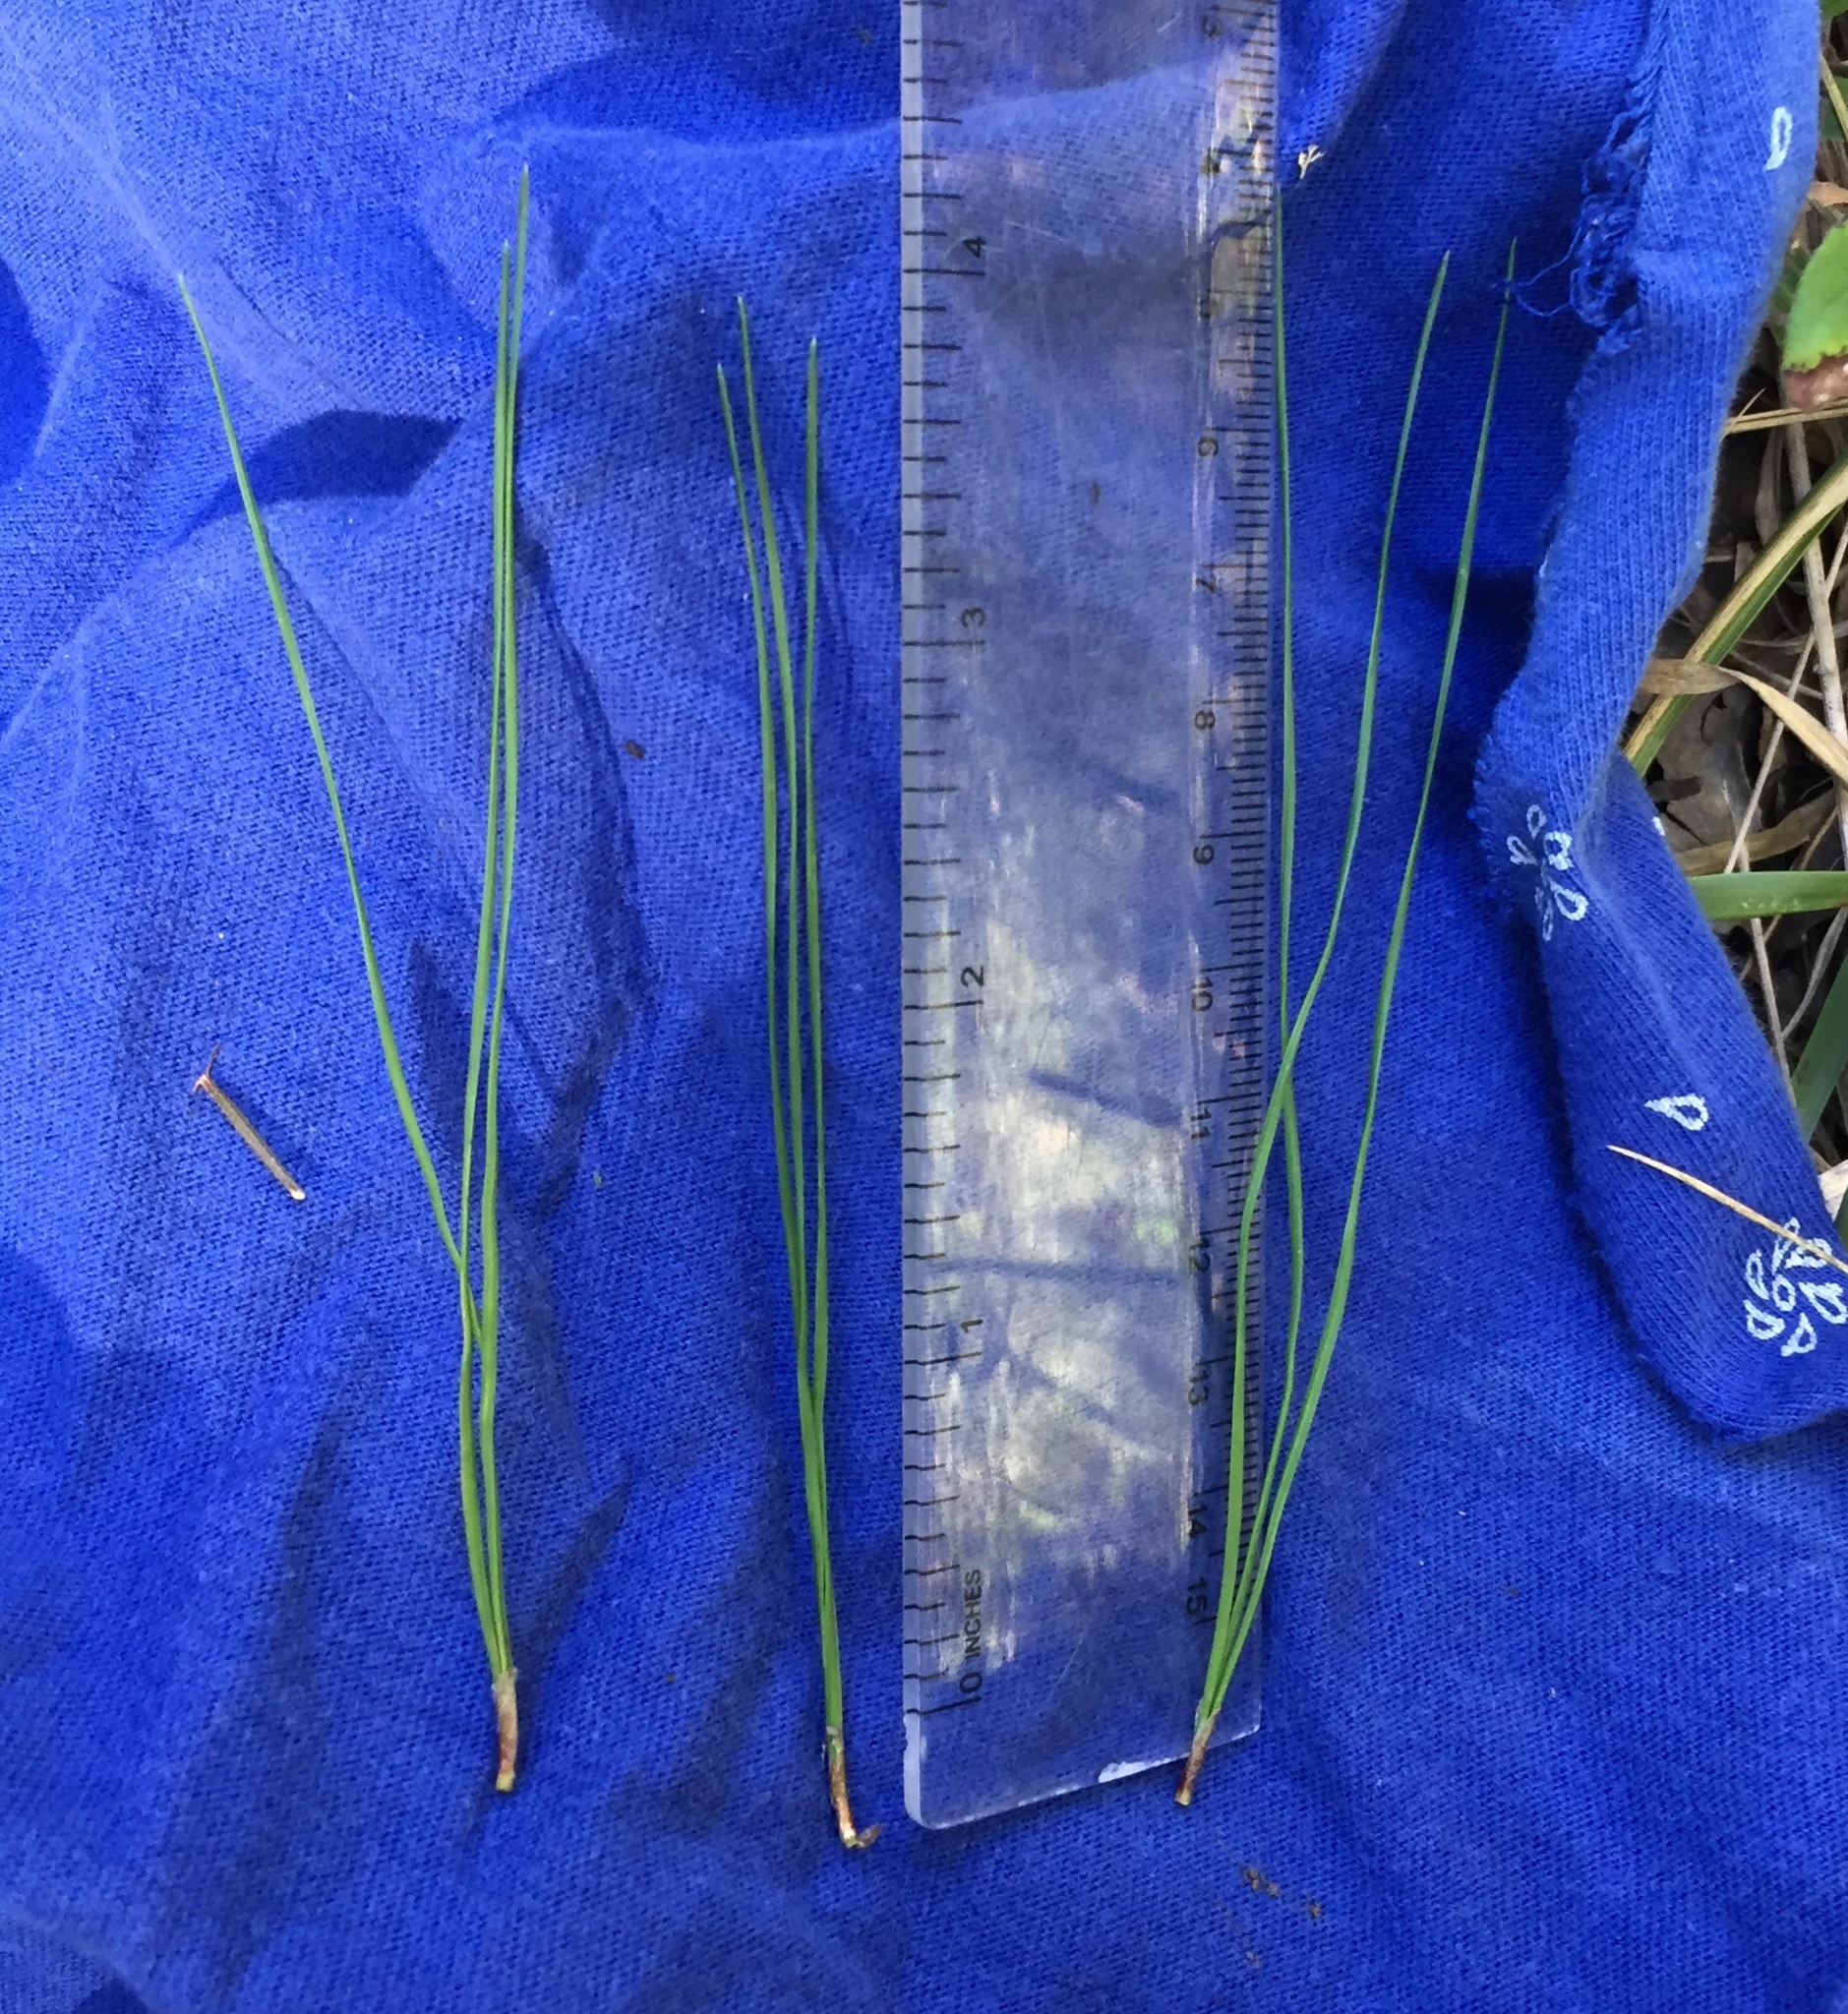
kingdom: Plantae
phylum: Tracheophyta
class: Pinopsida
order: Pinales
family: Pinaceae
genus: Pinus
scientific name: Pinus echinata
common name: Shortleaf pine
